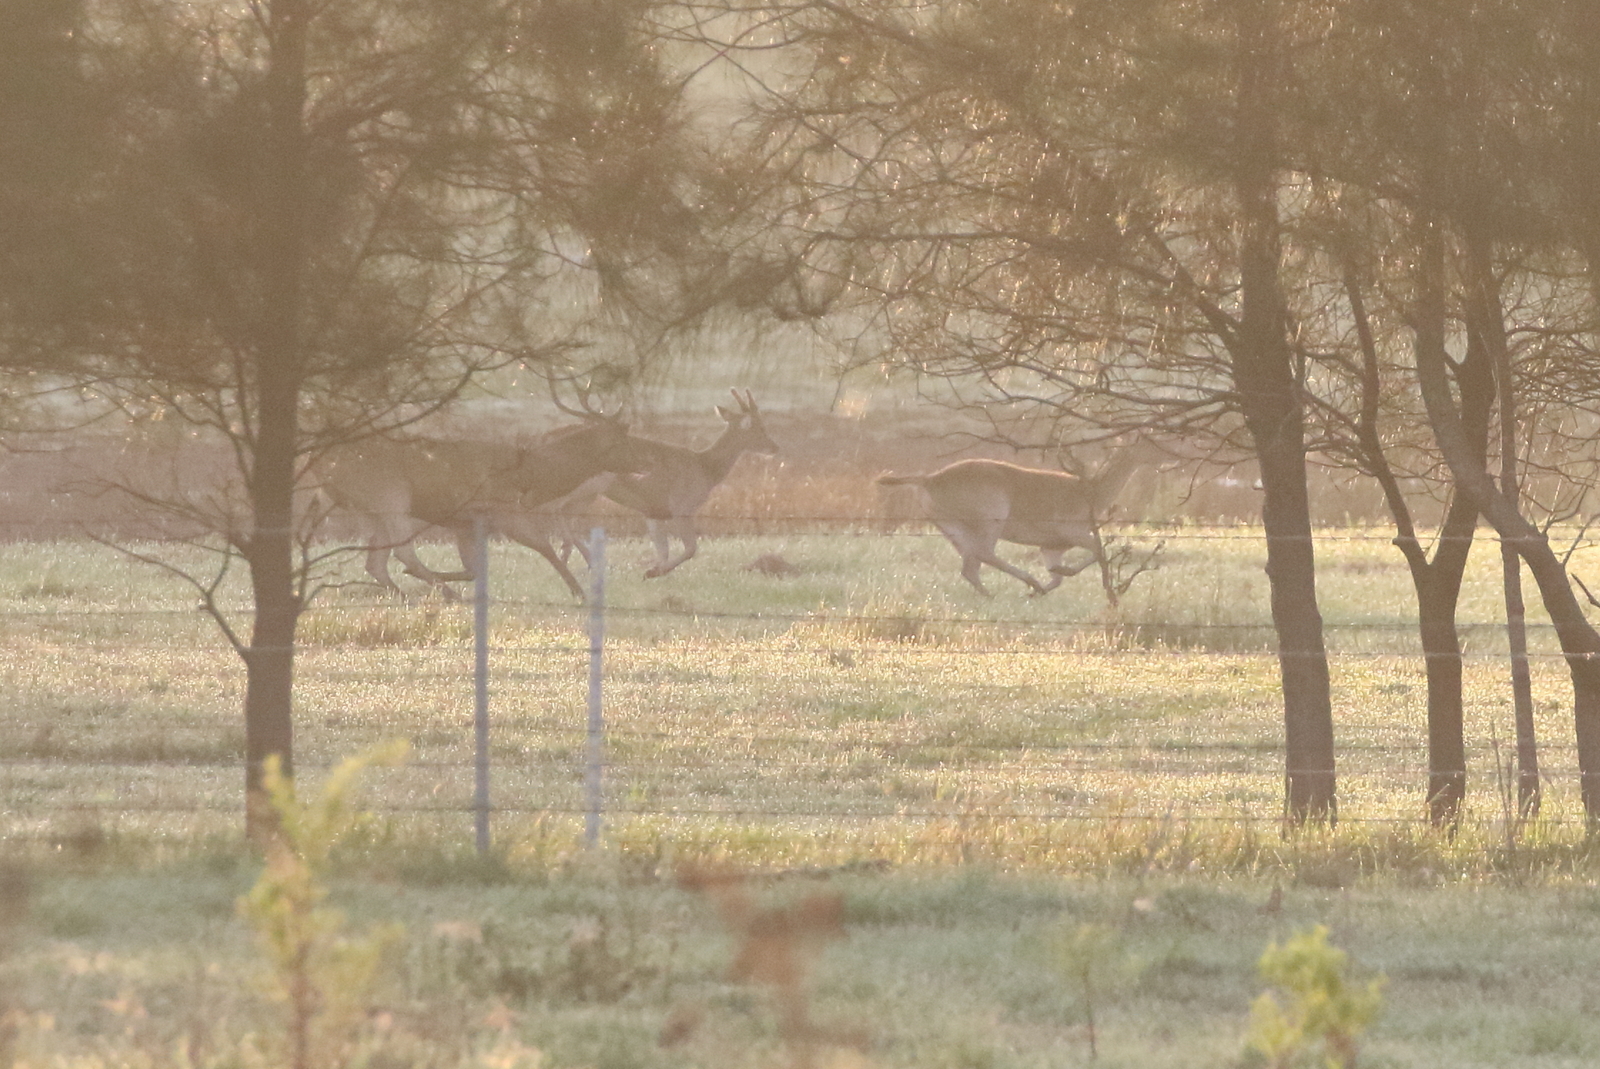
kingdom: Animalia
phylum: Chordata
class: Mammalia
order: Artiodactyla
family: Cervidae
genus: Rusa
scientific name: Rusa timorensis
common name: Javan rusa
